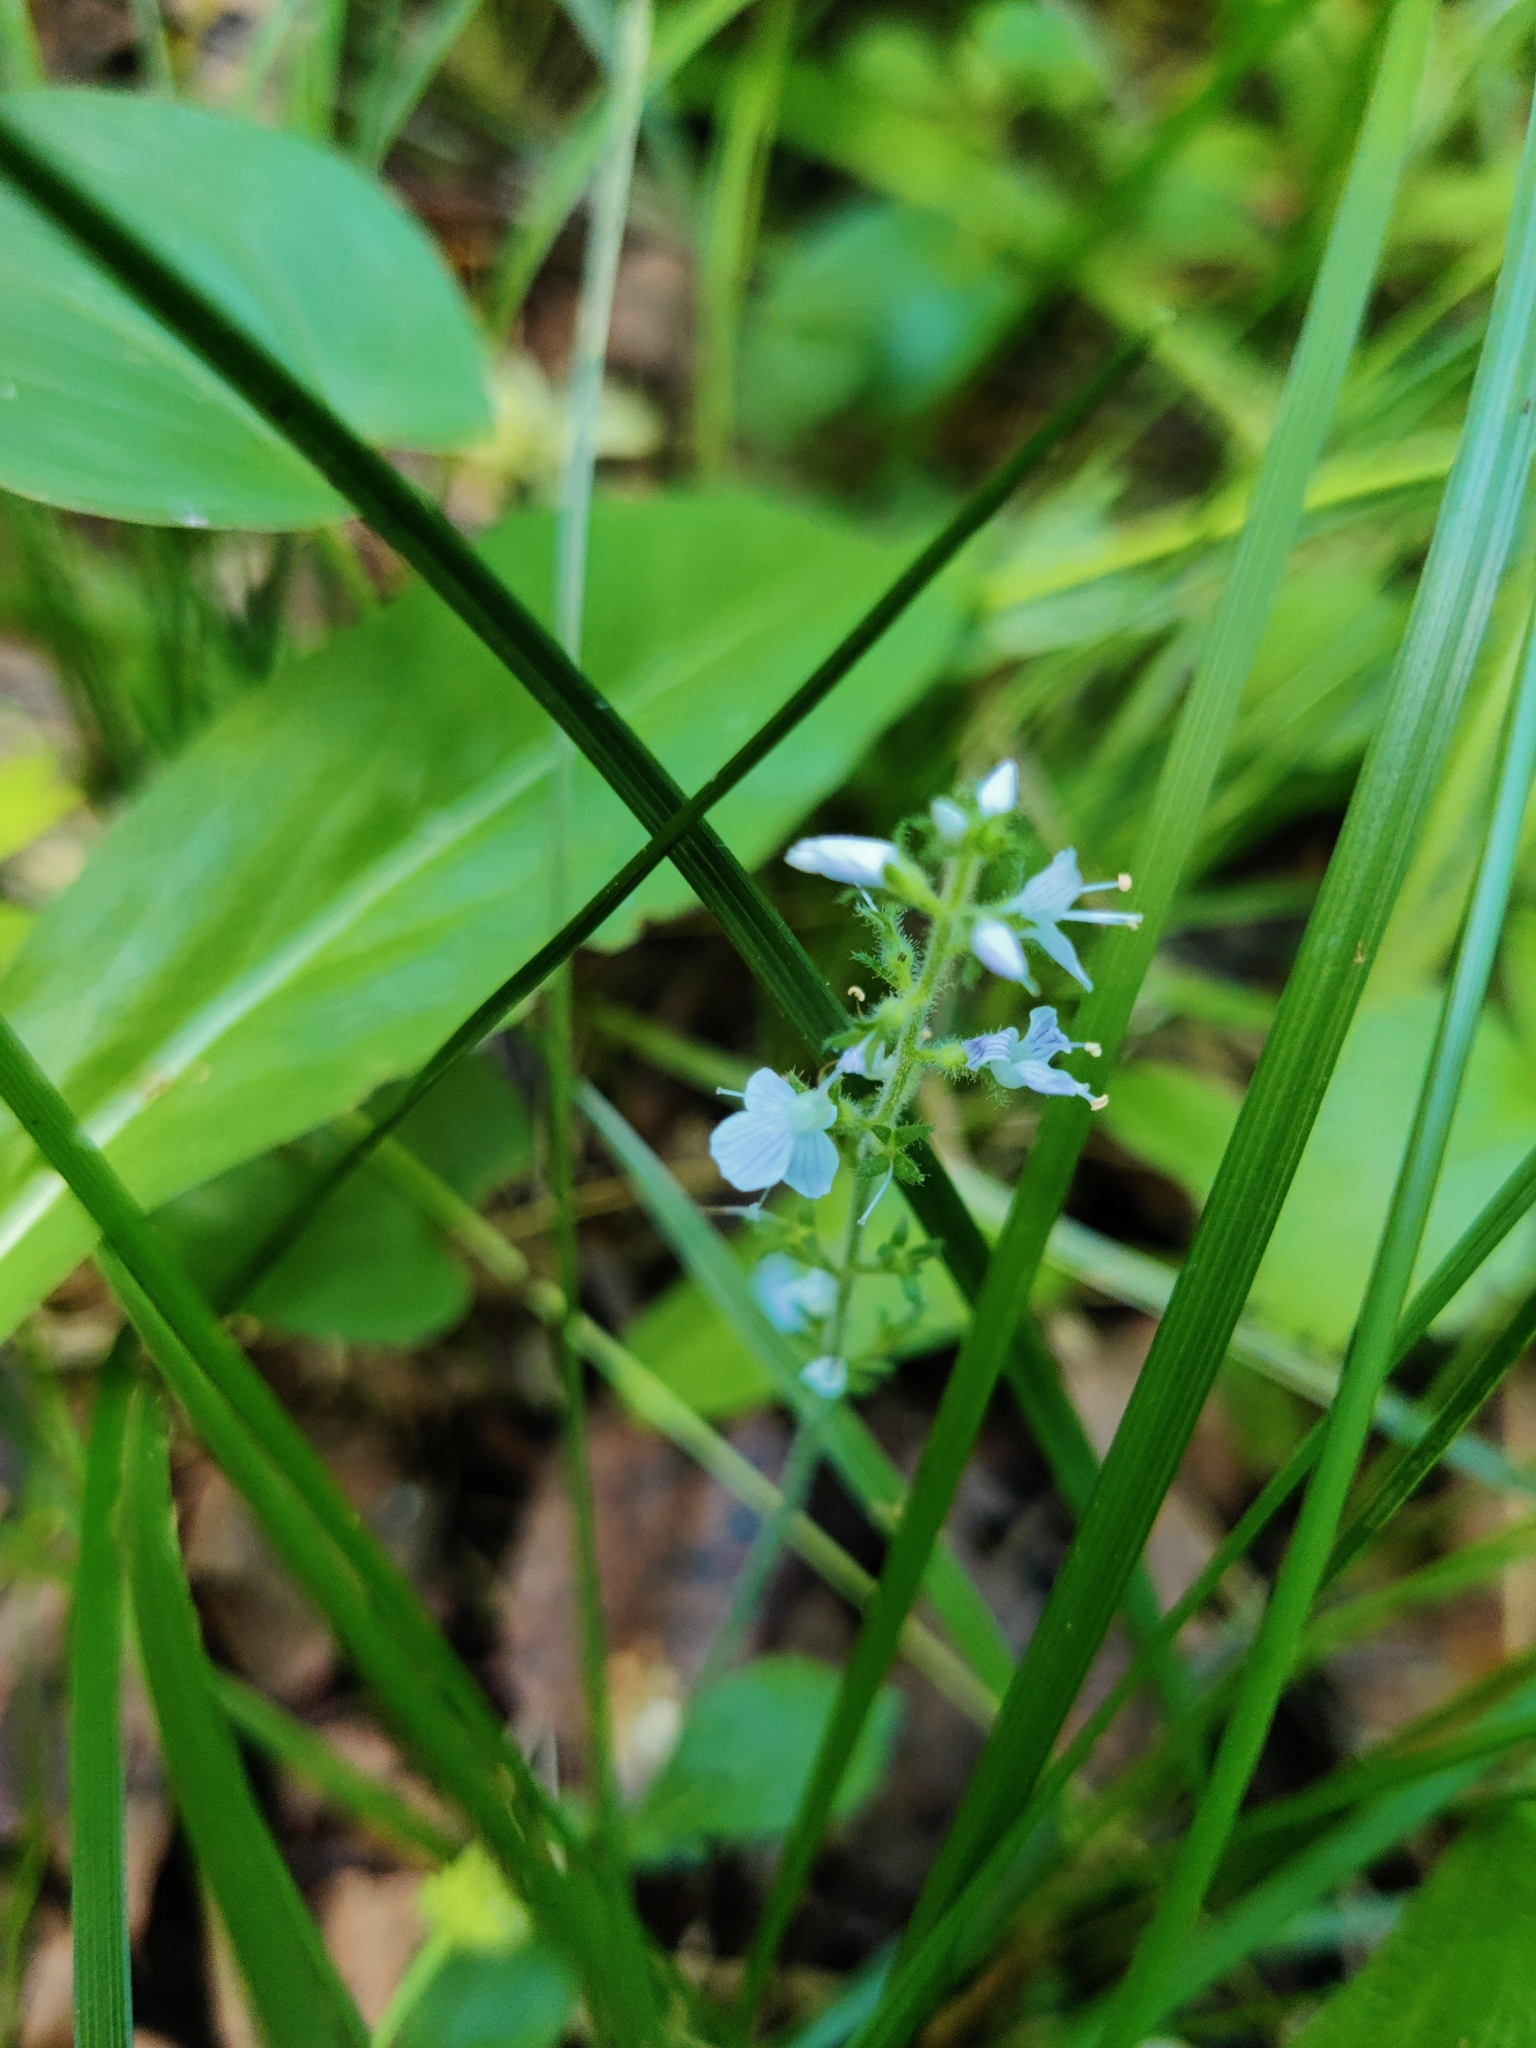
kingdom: Plantae
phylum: Tracheophyta
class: Magnoliopsida
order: Lamiales
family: Plantaginaceae
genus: Veronica
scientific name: Veronica officinalis
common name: Common speedwell
